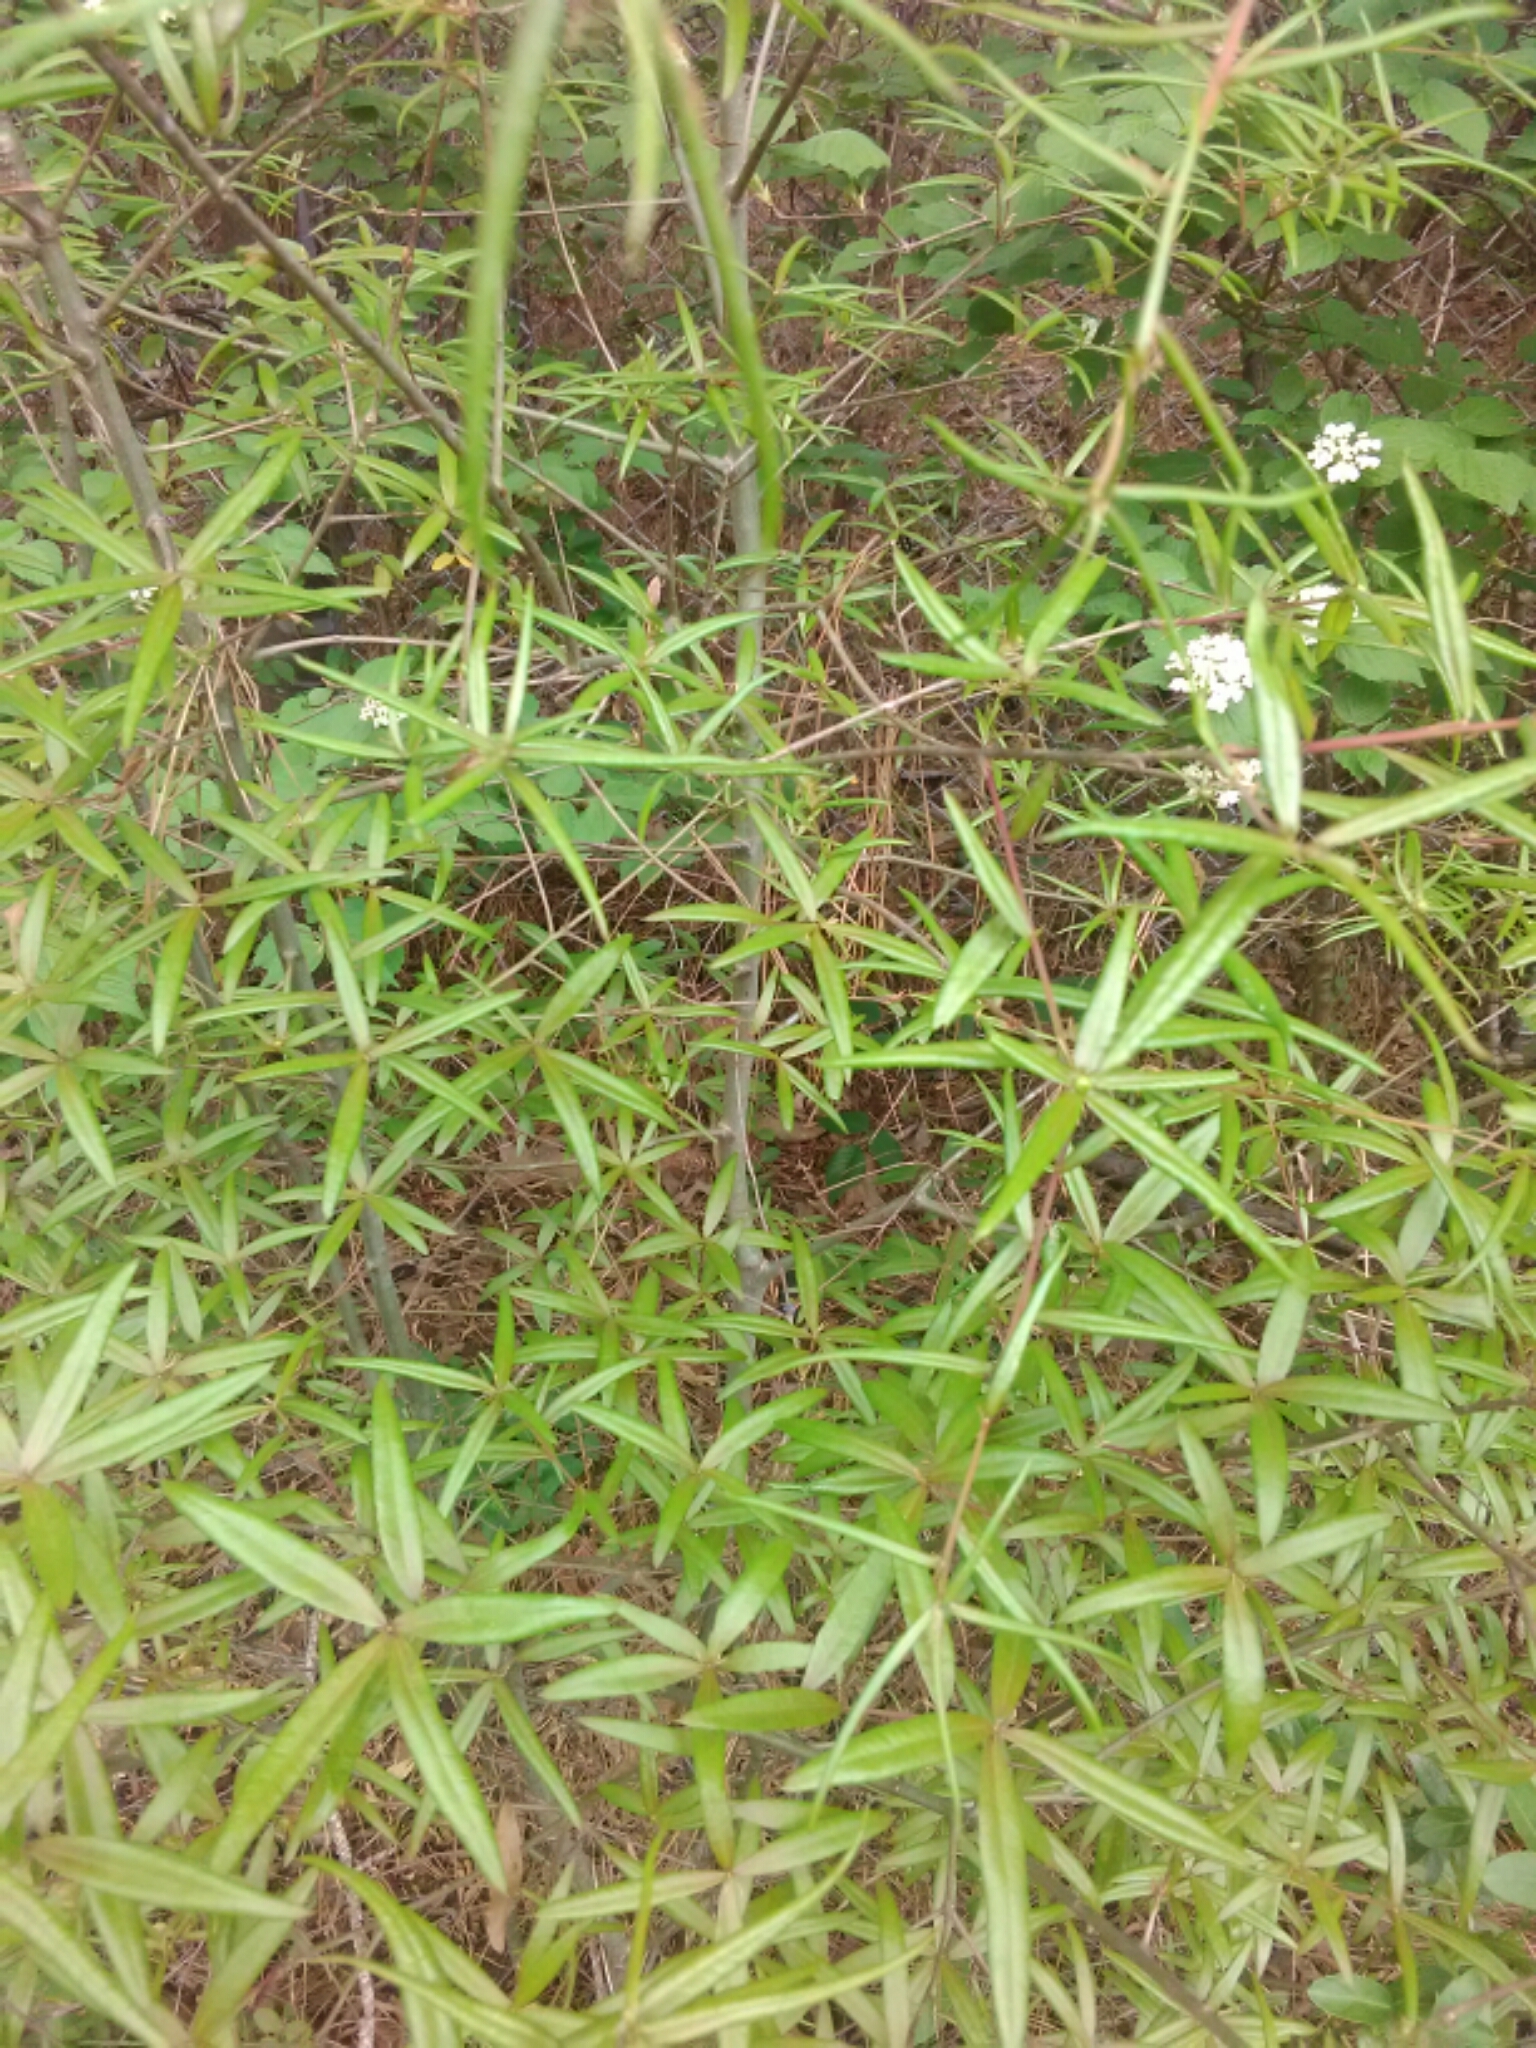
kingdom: Plantae
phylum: Tracheophyta
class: Magnoliopsida
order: Fagales
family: Fagaceae
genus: Quercus
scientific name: Quercus phellos
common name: Willow oak
